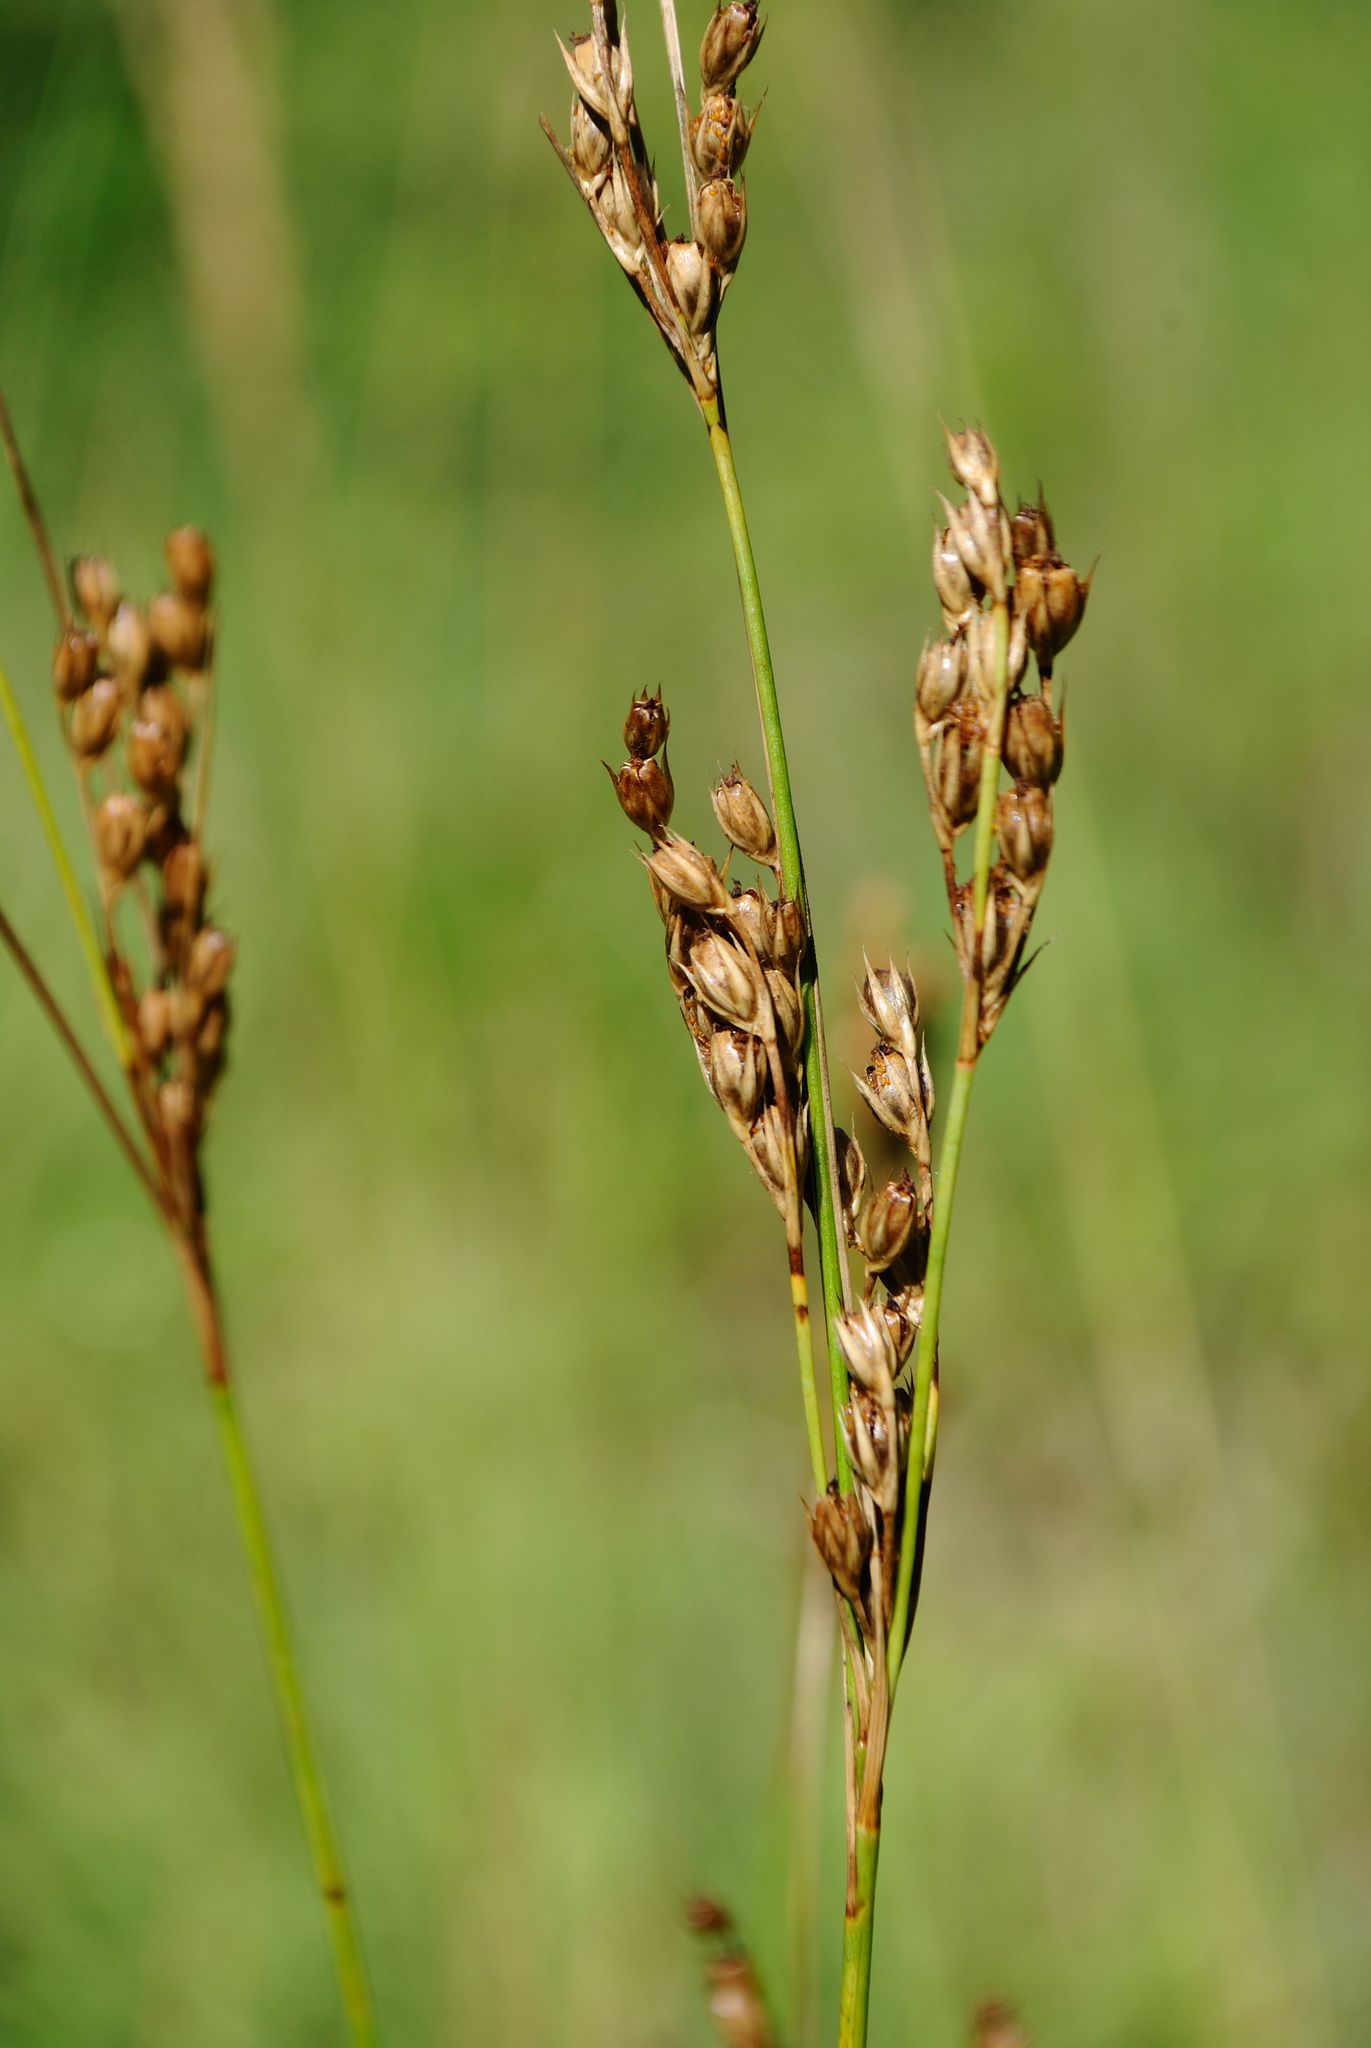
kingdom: Plantae
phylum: Tracheophyta
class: Liliopsida
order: Poales
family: Juncaceae
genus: Juncus
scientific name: Juncus greenei
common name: Greene's rush
